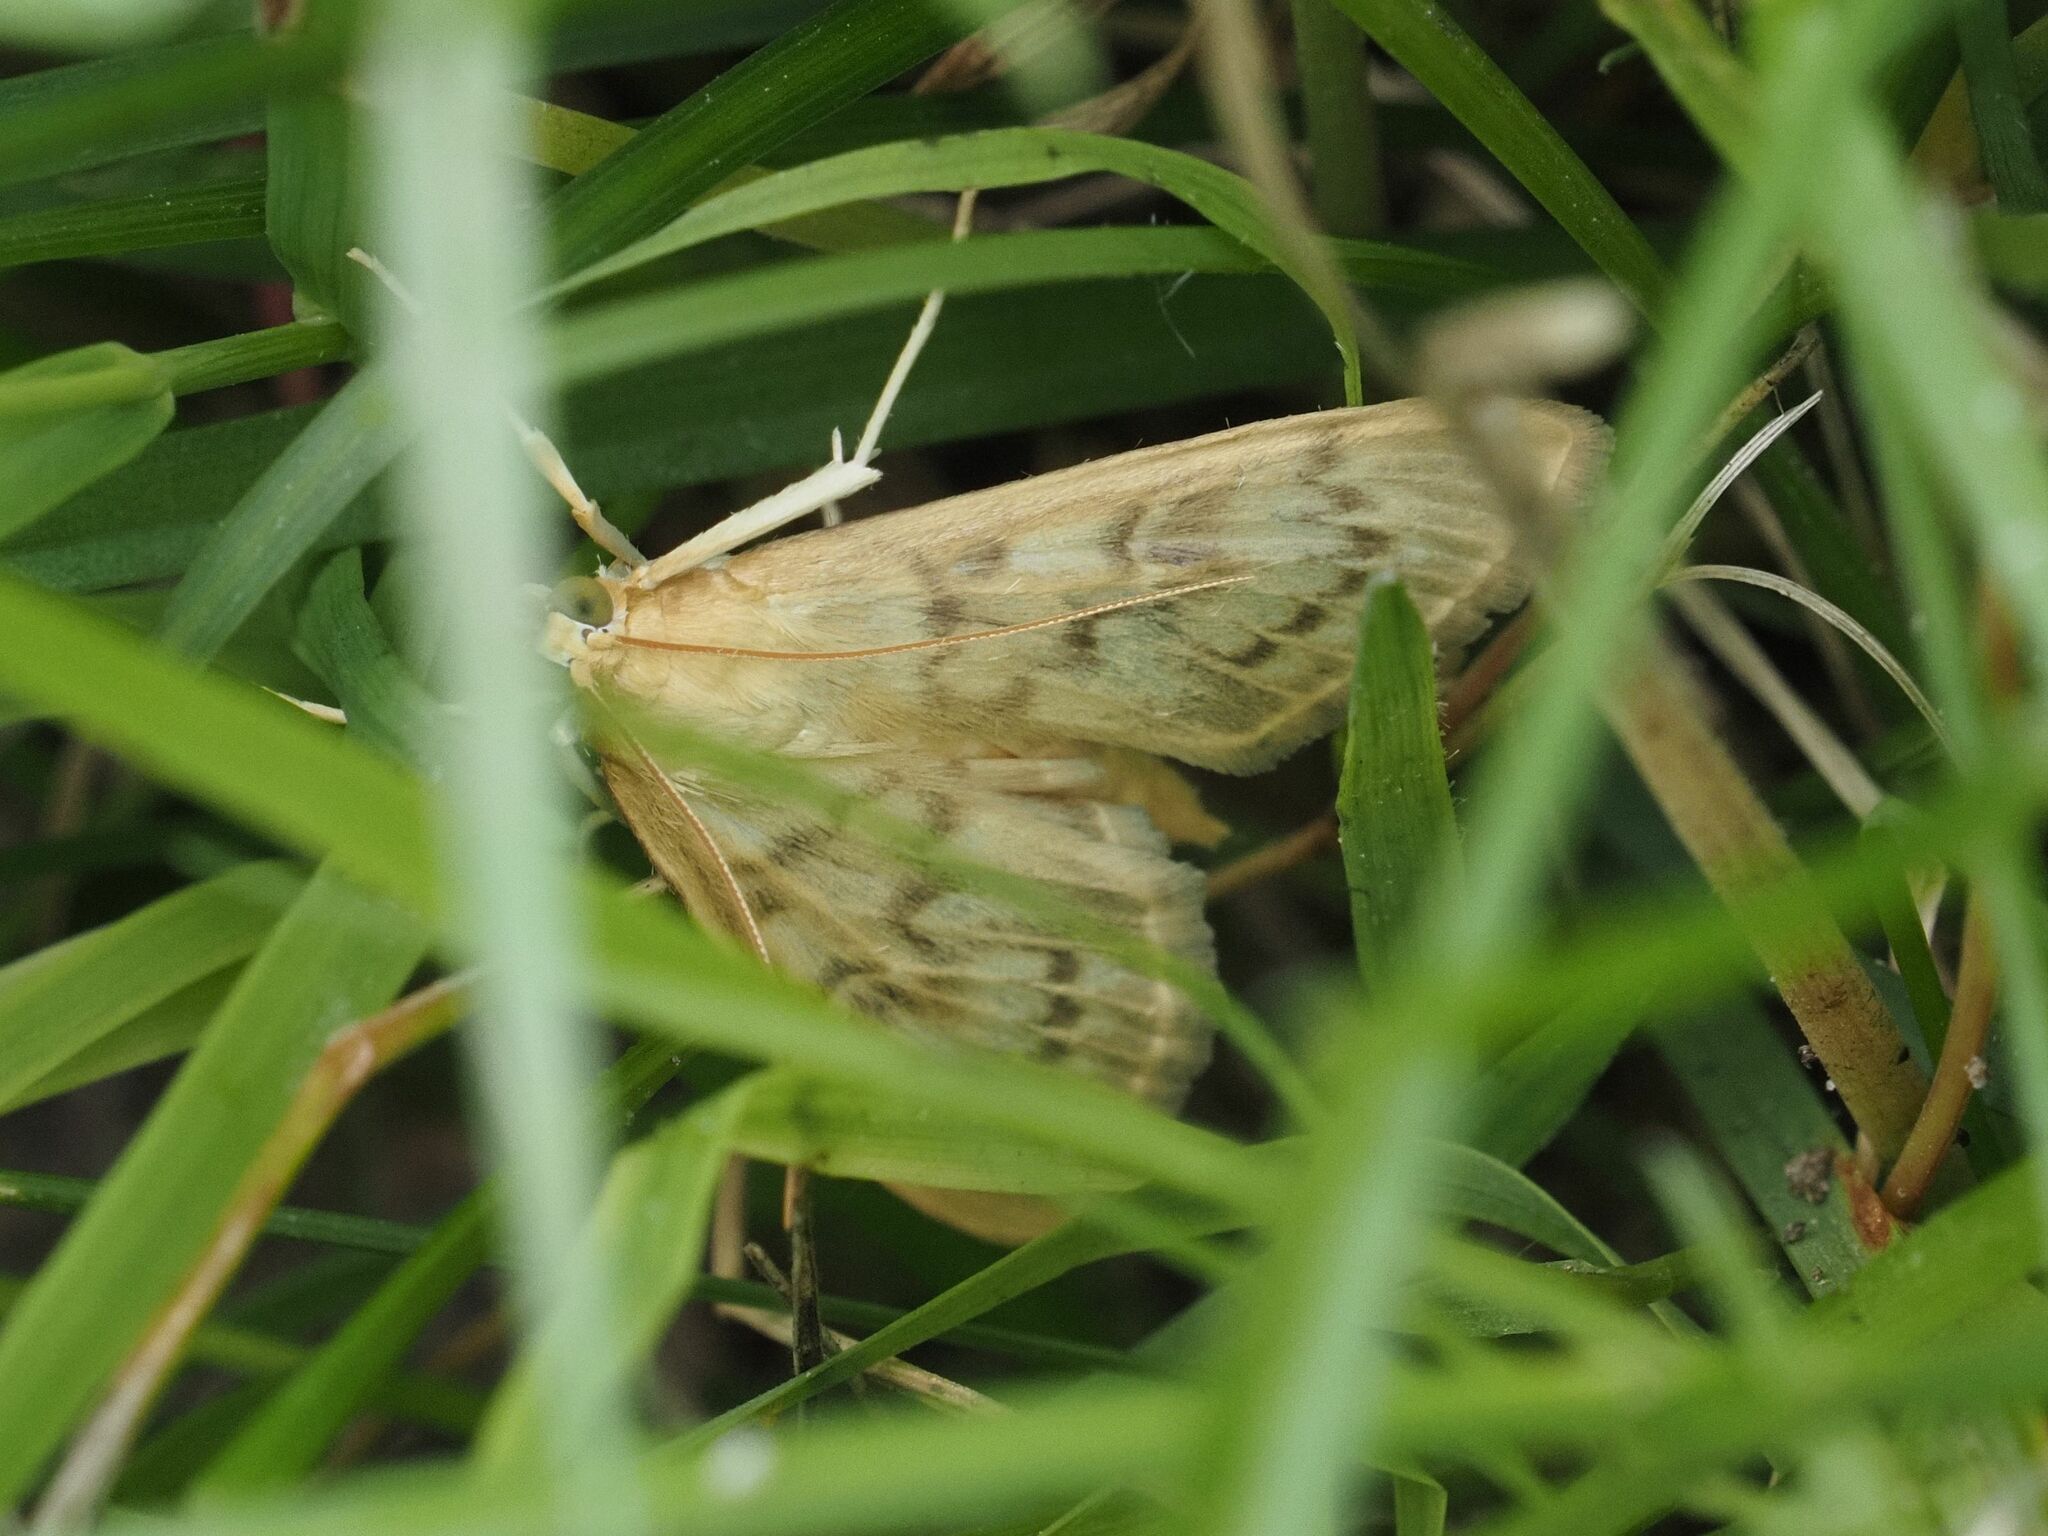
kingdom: Animalia
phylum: Arthropoda
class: Insecta
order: Lepidoptera
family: Crambidae
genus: Patania
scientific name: Patania ruralis
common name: Mother of pearl
